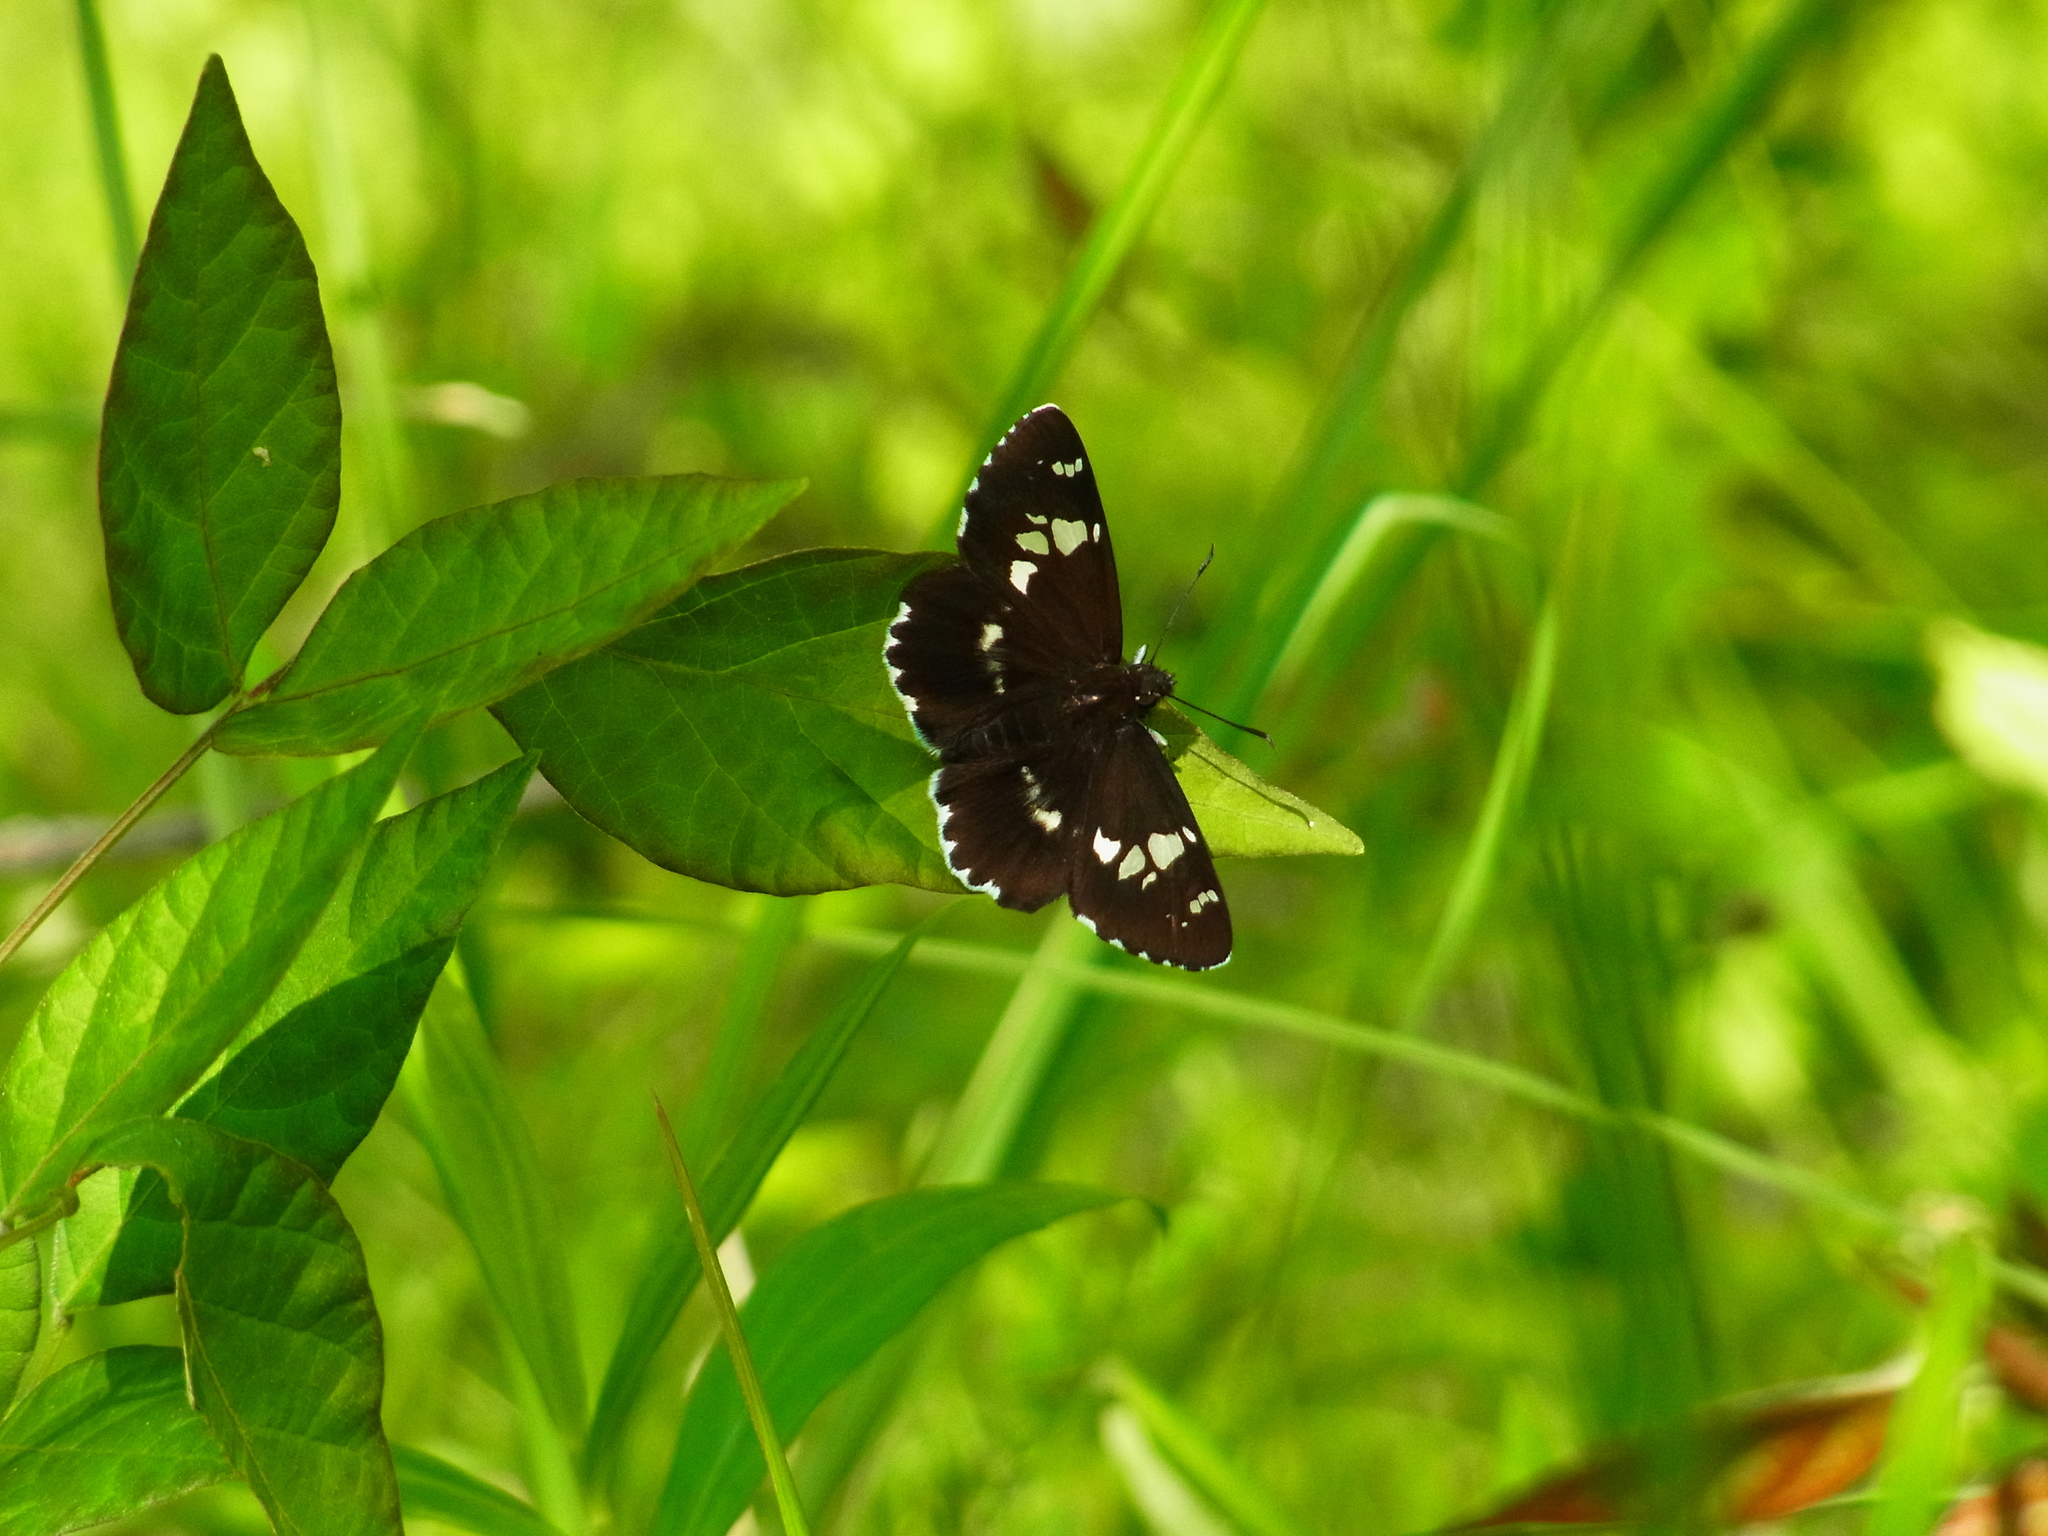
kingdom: Animalia
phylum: Arthropoda
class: Insecta
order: Lepidoptera
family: Hesperiidae
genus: Daimio
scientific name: Daimio tethys
